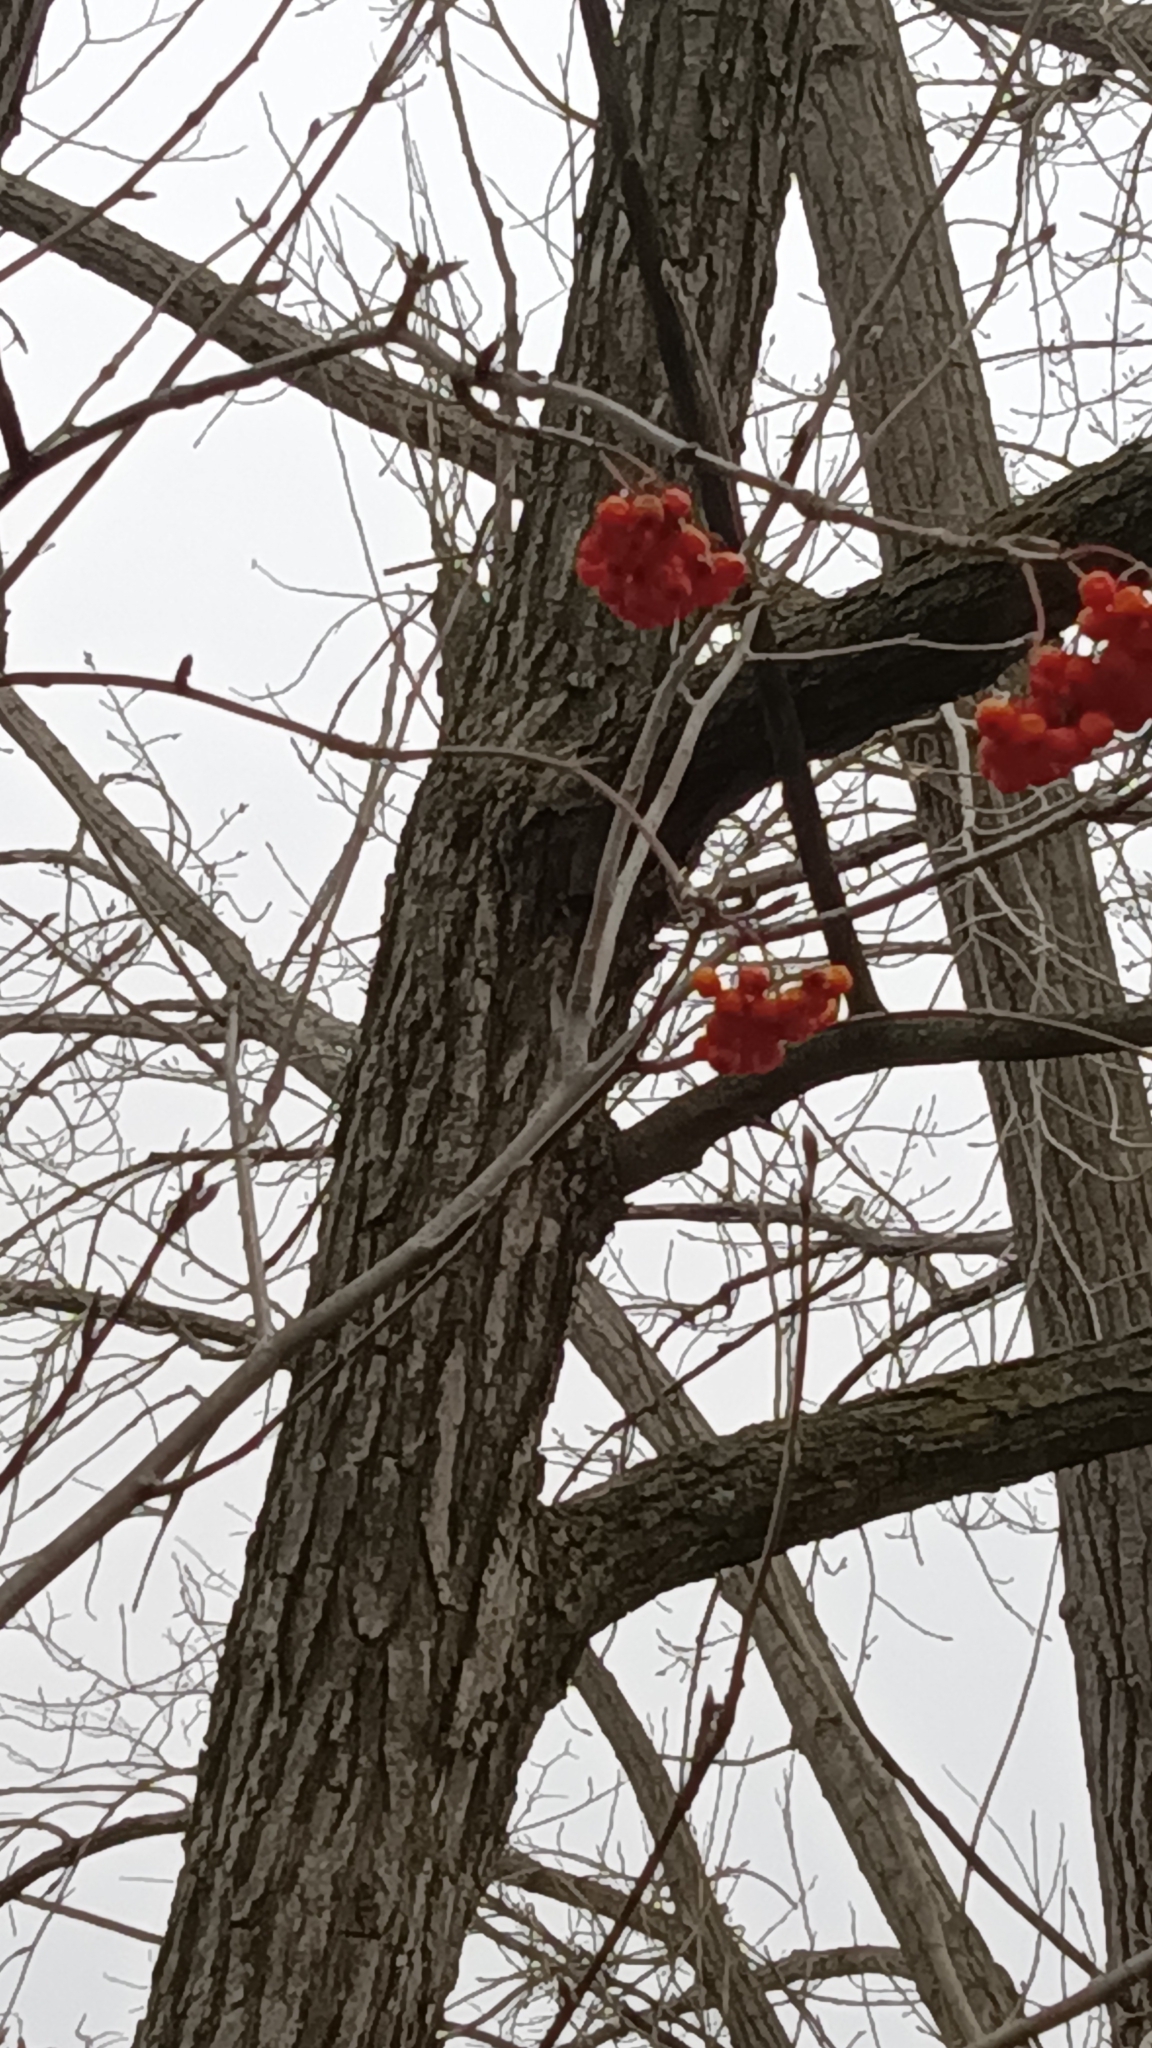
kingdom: Plantae
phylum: Tracheophyta
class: Magnoliopsida
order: Rosales
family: Rosaceae
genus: Sorbus
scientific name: Sorbus aucuparia
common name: Rowan
